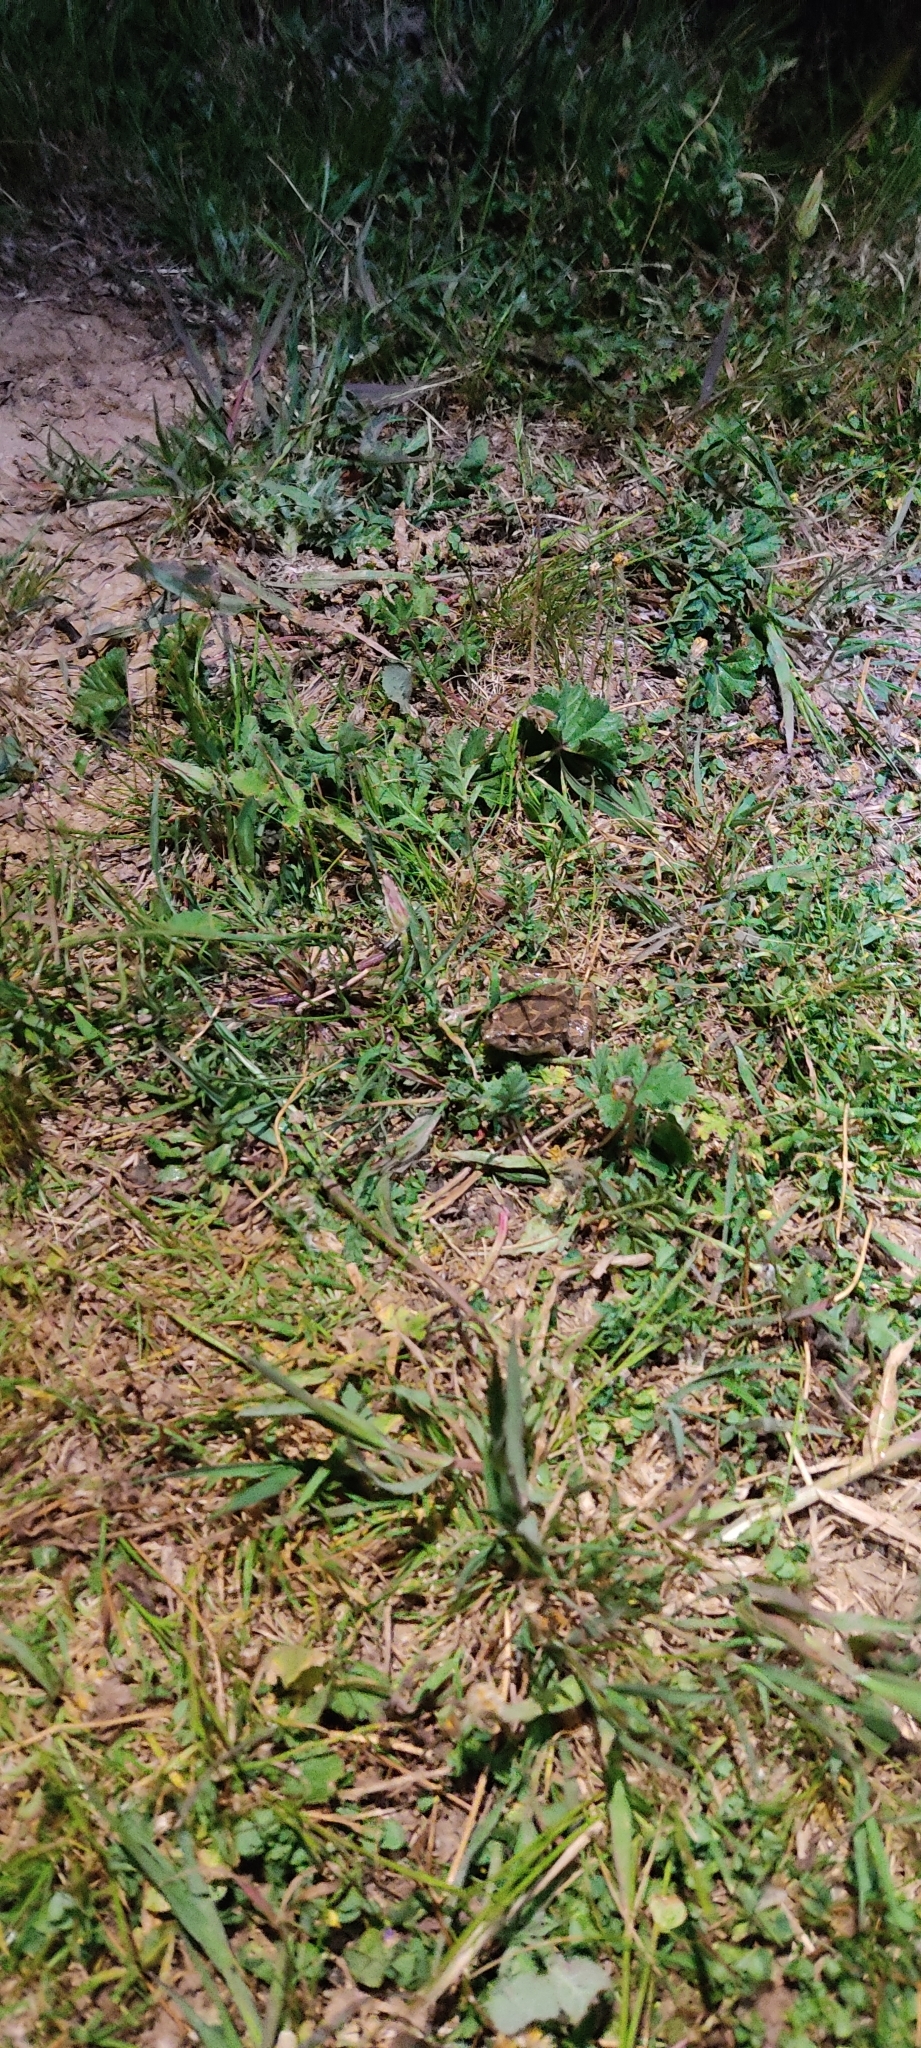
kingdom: Animalia
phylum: Chordata
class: Amphibia
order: Anura
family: Alytidae
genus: Discoglossus
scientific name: Discoglossus pictus
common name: Painted frog
